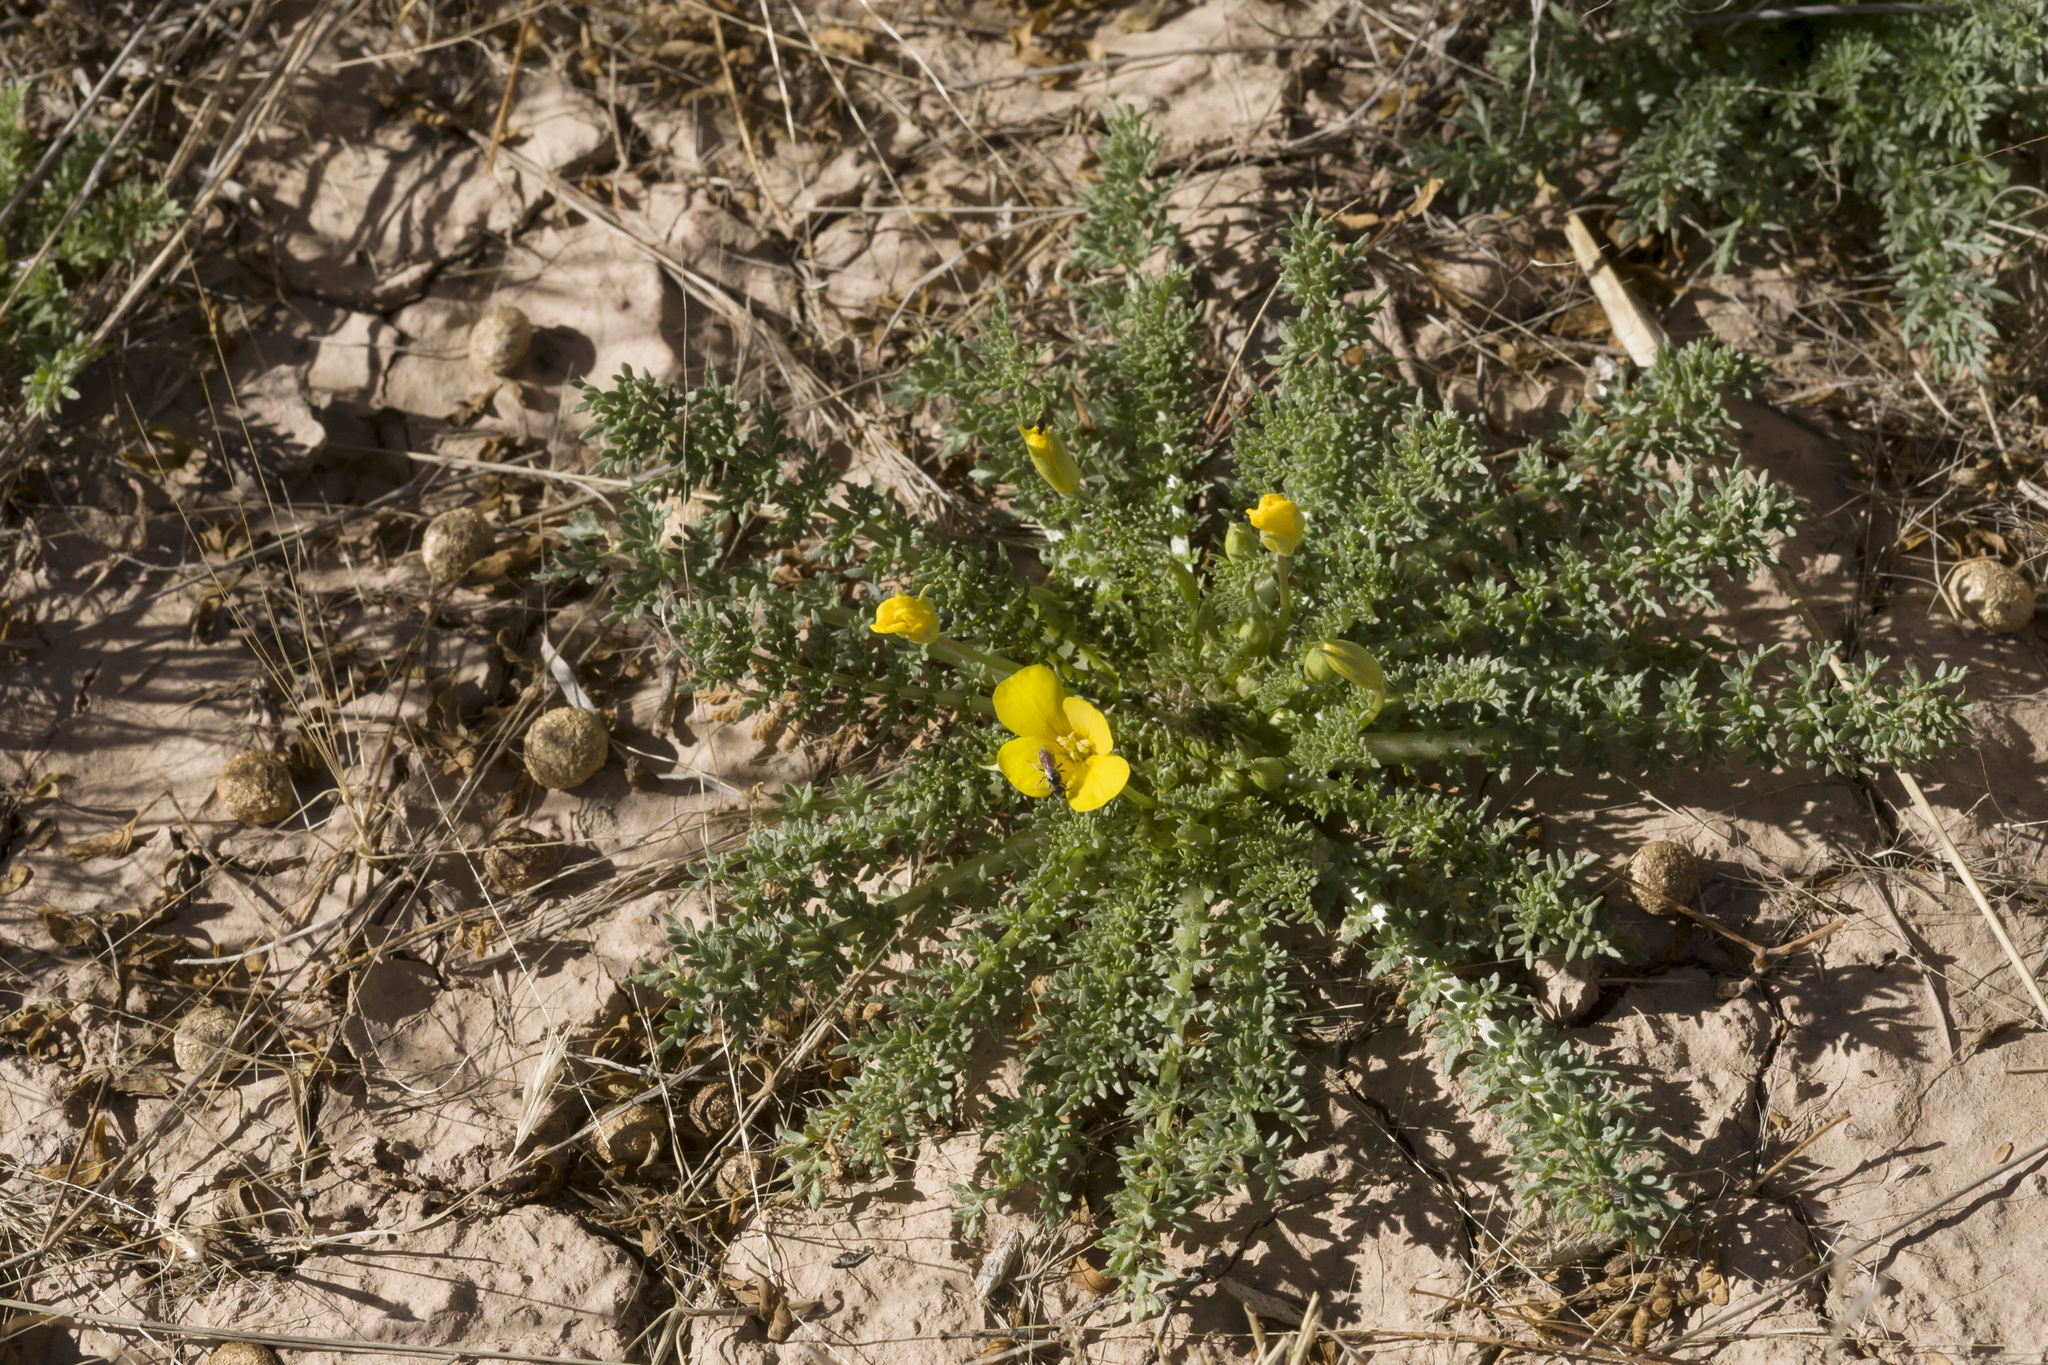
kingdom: Plantae
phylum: Tracheophyta
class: Magnoliopsida
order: Brassicales
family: Brassicaceae
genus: Selenia
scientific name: Selenia dissecta
